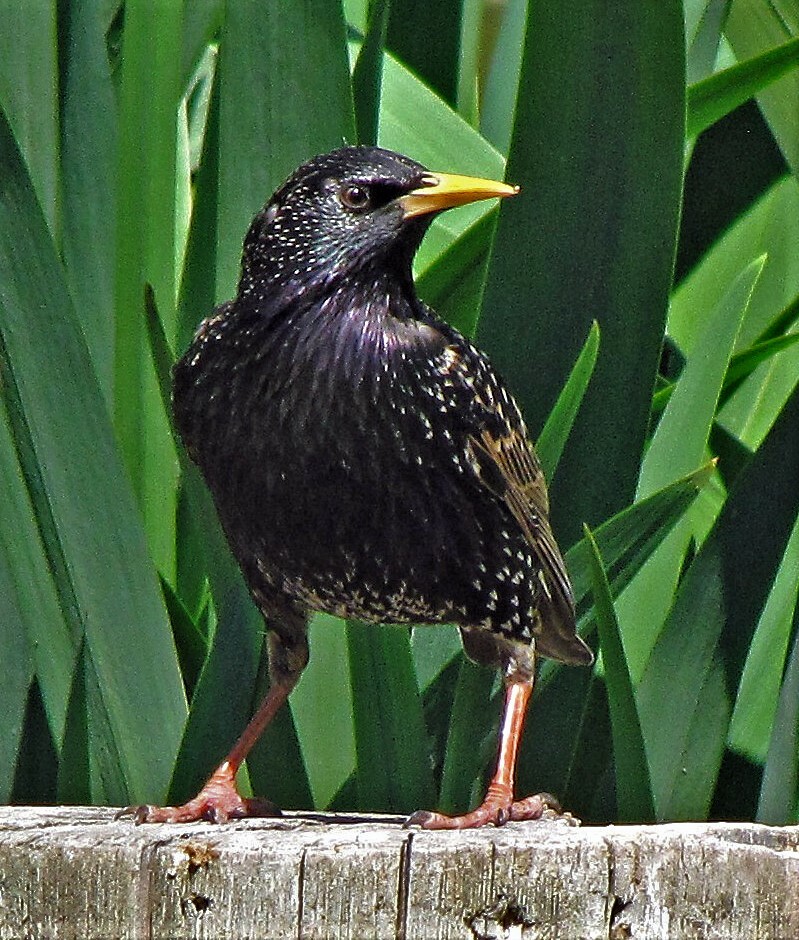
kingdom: Animalia
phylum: Chordata
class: Aves
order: Passeriformes
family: Sturnidae
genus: Sturnus
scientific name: Sturnus vulgaris
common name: Common starling
